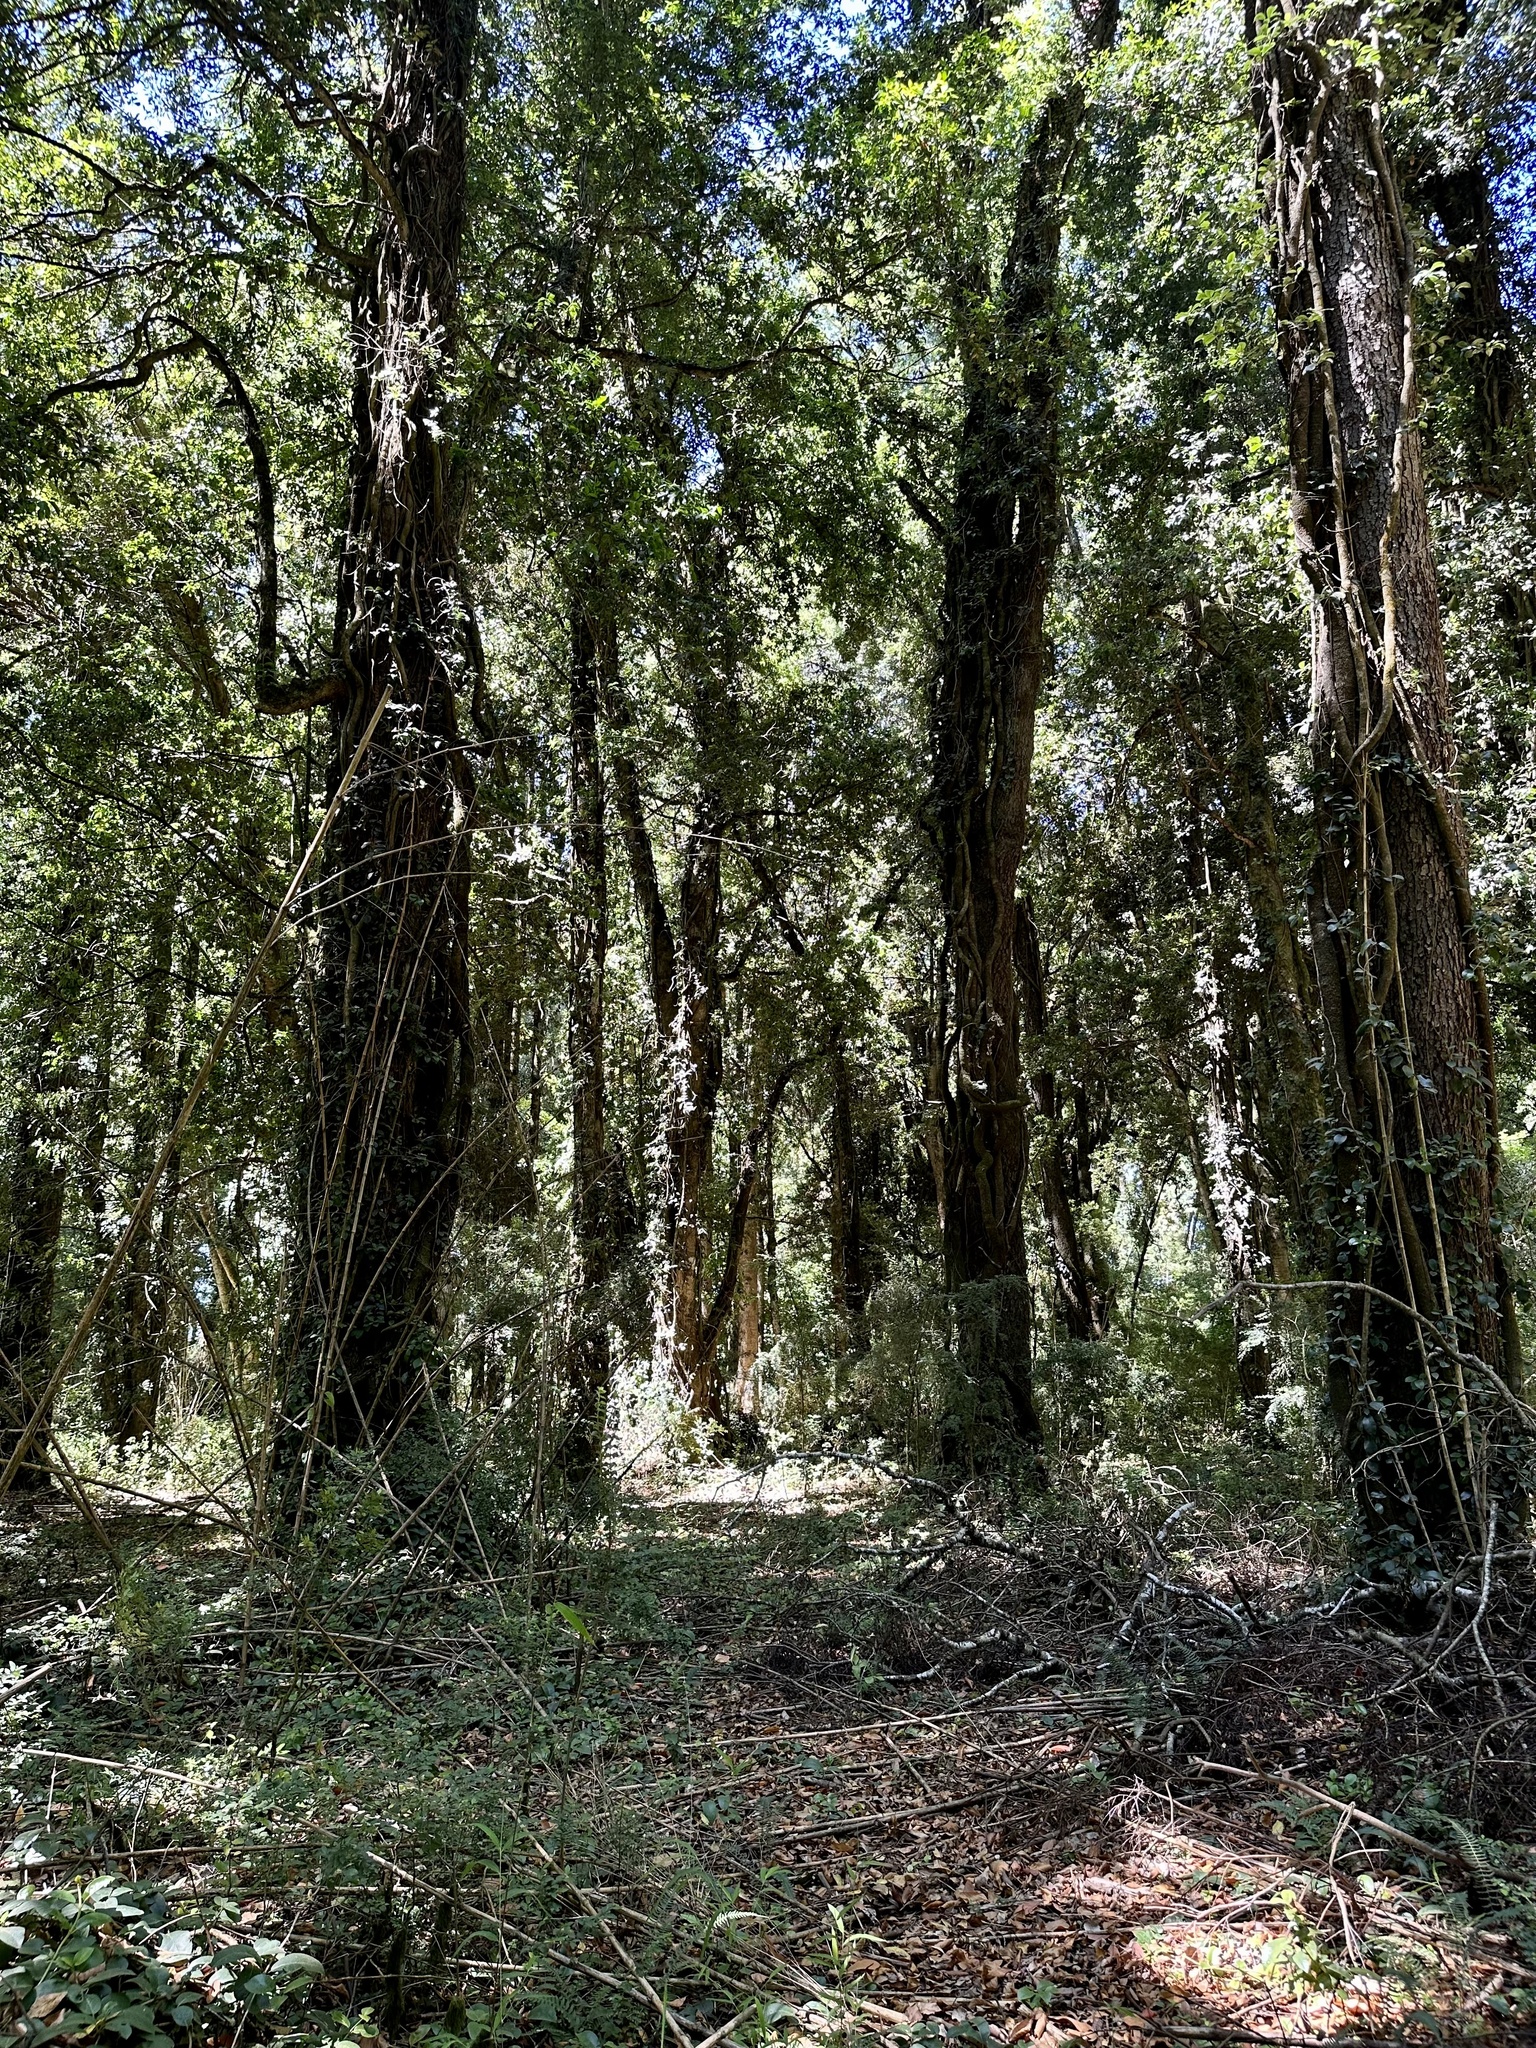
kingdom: Plantae
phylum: Tracheophyta
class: Magnoliopsida
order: Cornales
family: Hydrangeaceae
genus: Hydrangea
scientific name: Hydrangea serratifolia
